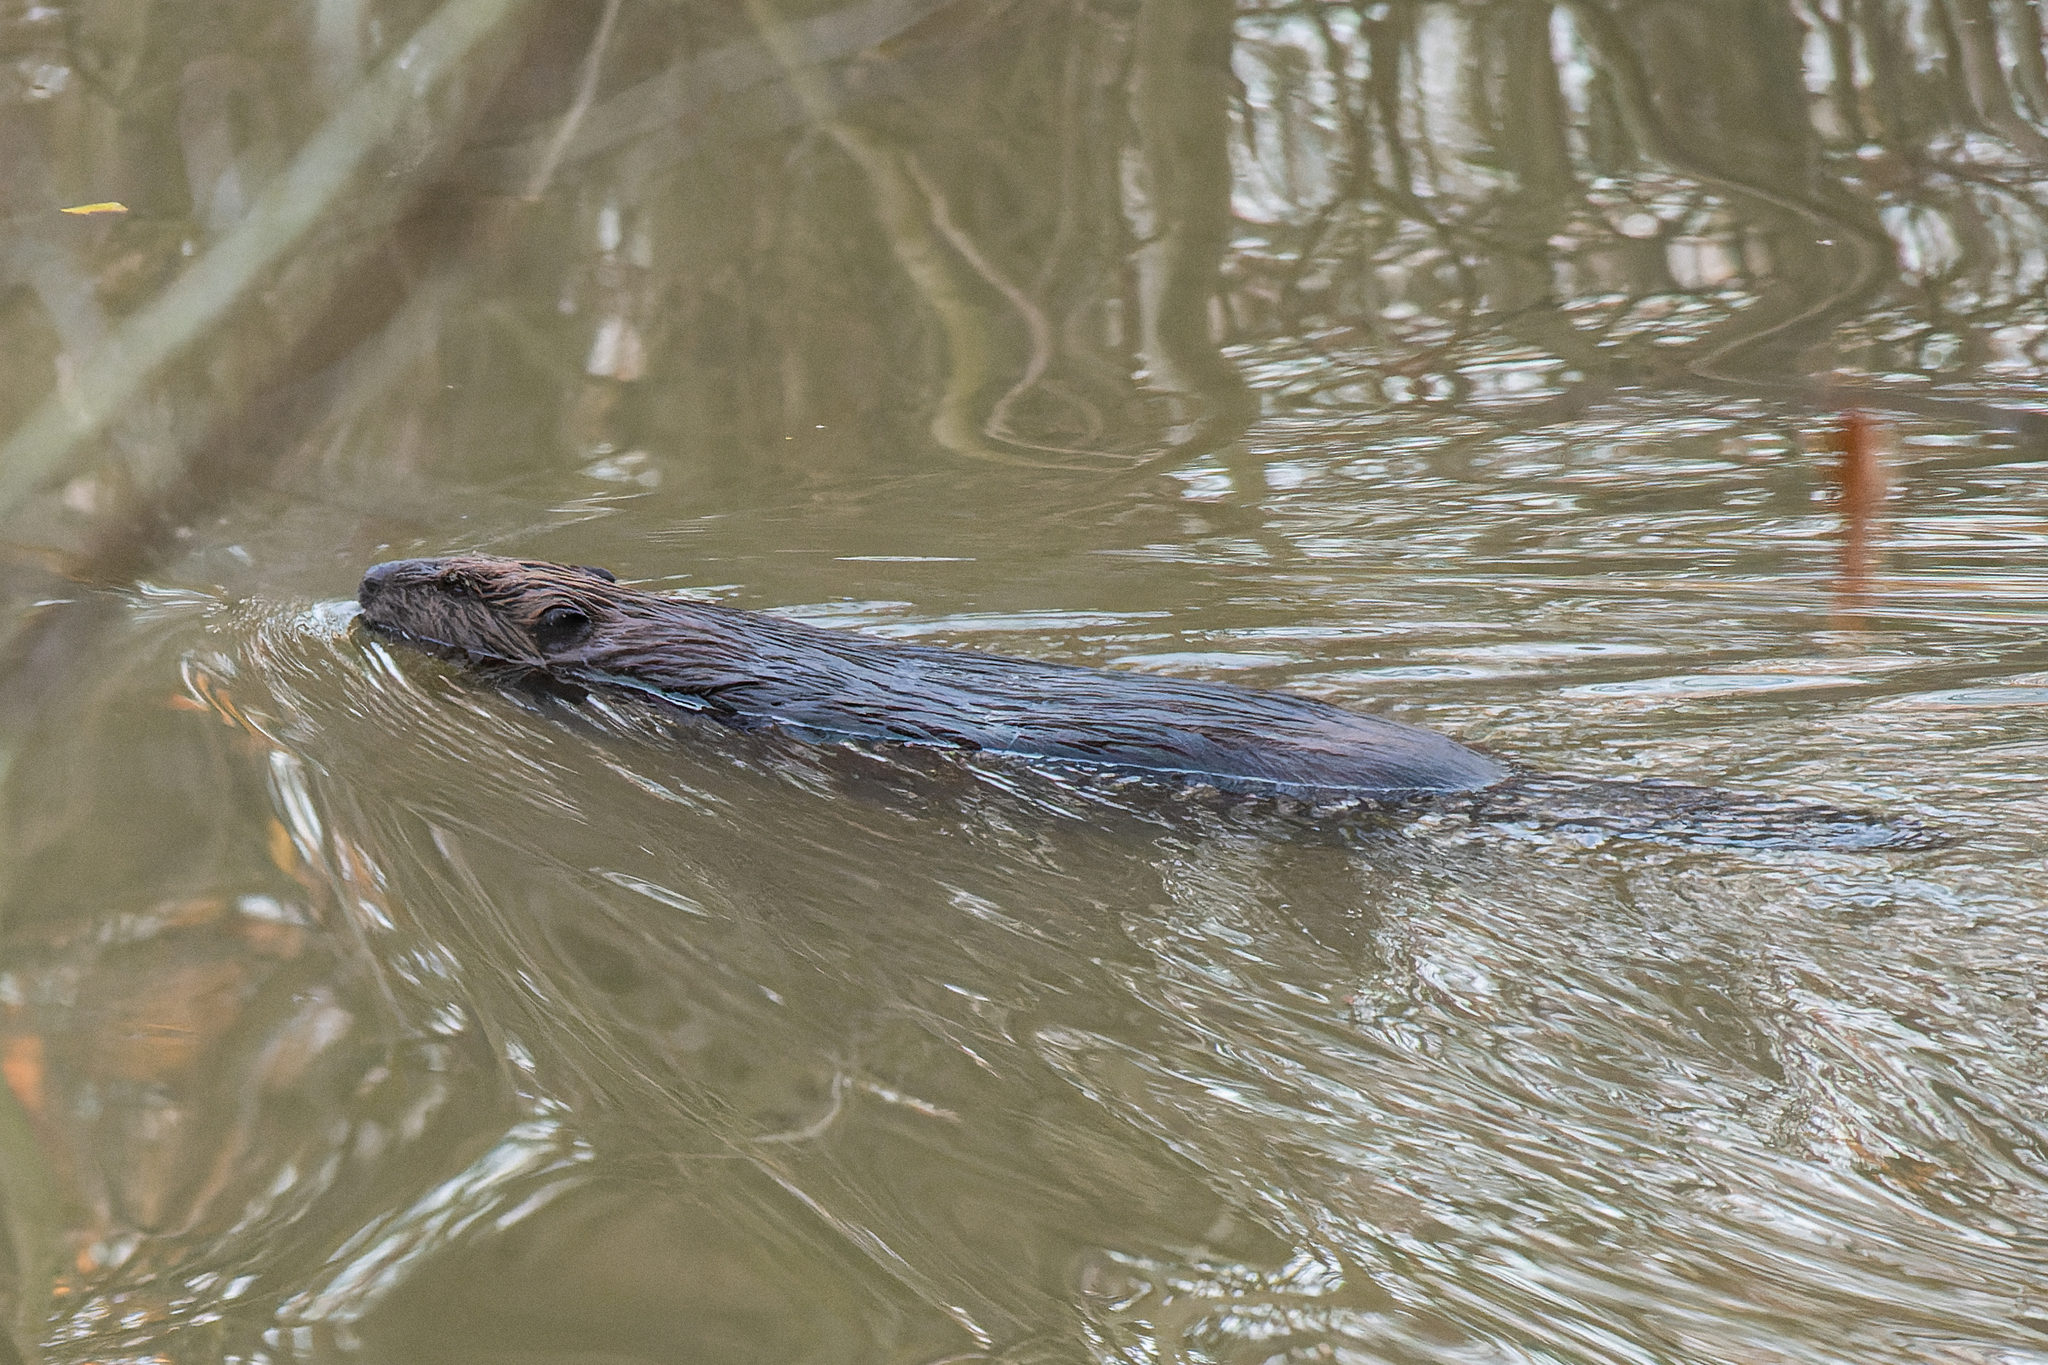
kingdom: Animalia
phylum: Chordata
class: Mammalia
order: Rodentia
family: Castoridae
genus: Castor
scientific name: Castor canadensis
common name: American beaver
